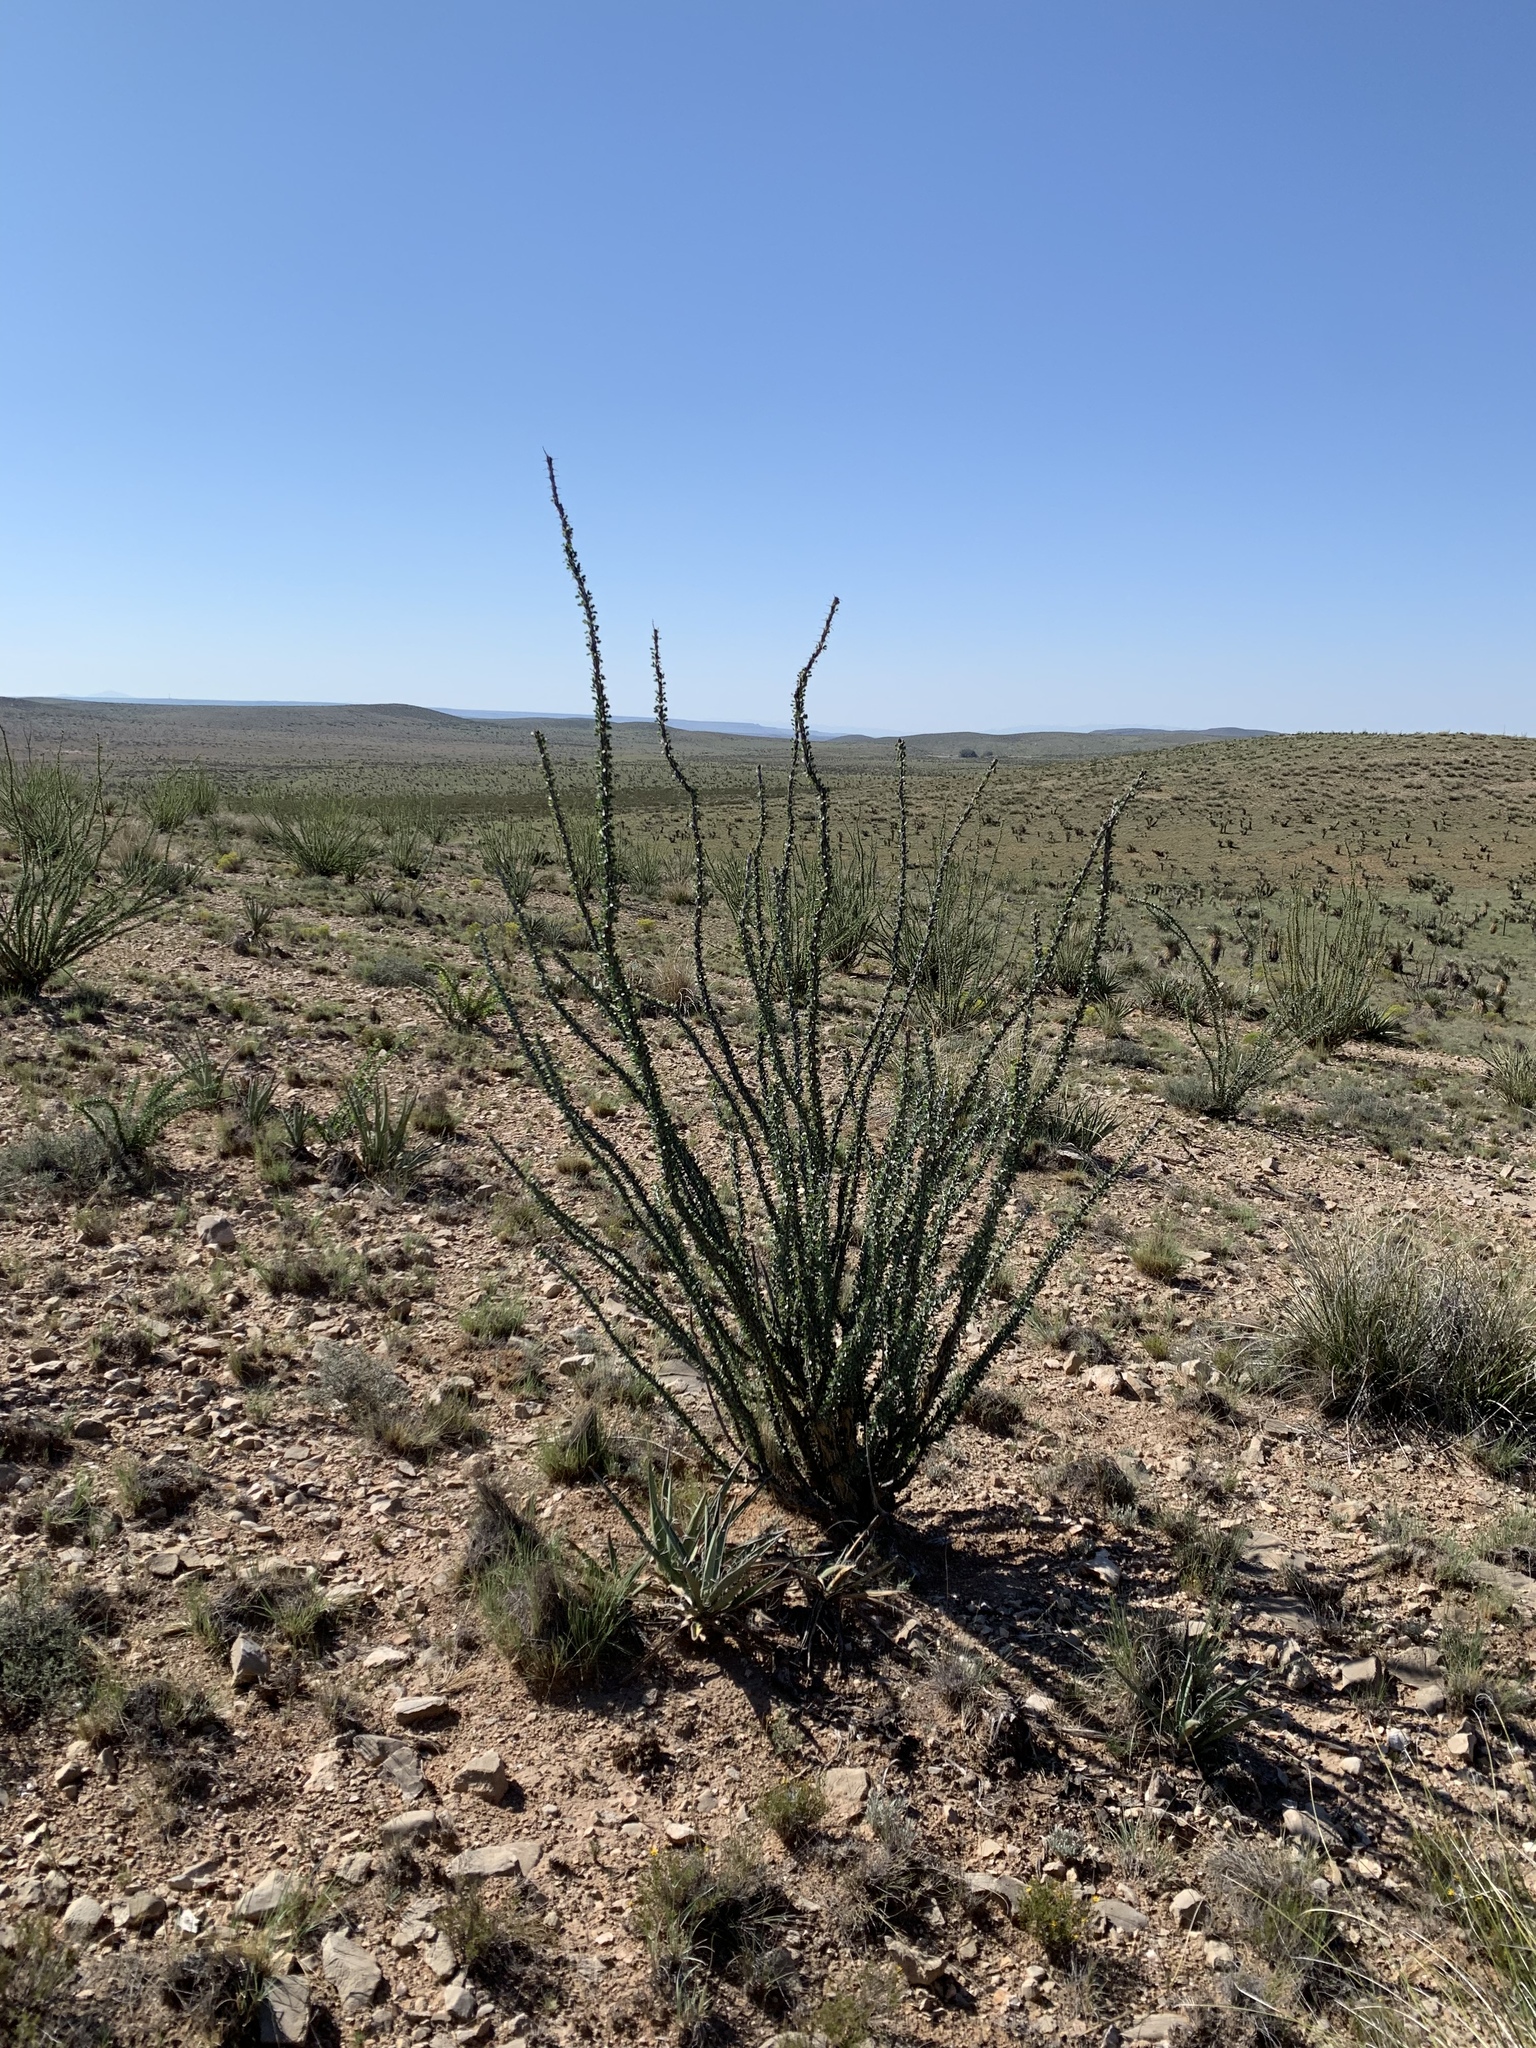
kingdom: Plantae
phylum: Tracheophyta
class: Magnoliopsida
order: Ericales
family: Fouquieriaceae
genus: Fouquieria
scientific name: Fouquieria splendens
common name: Vine-cactus
